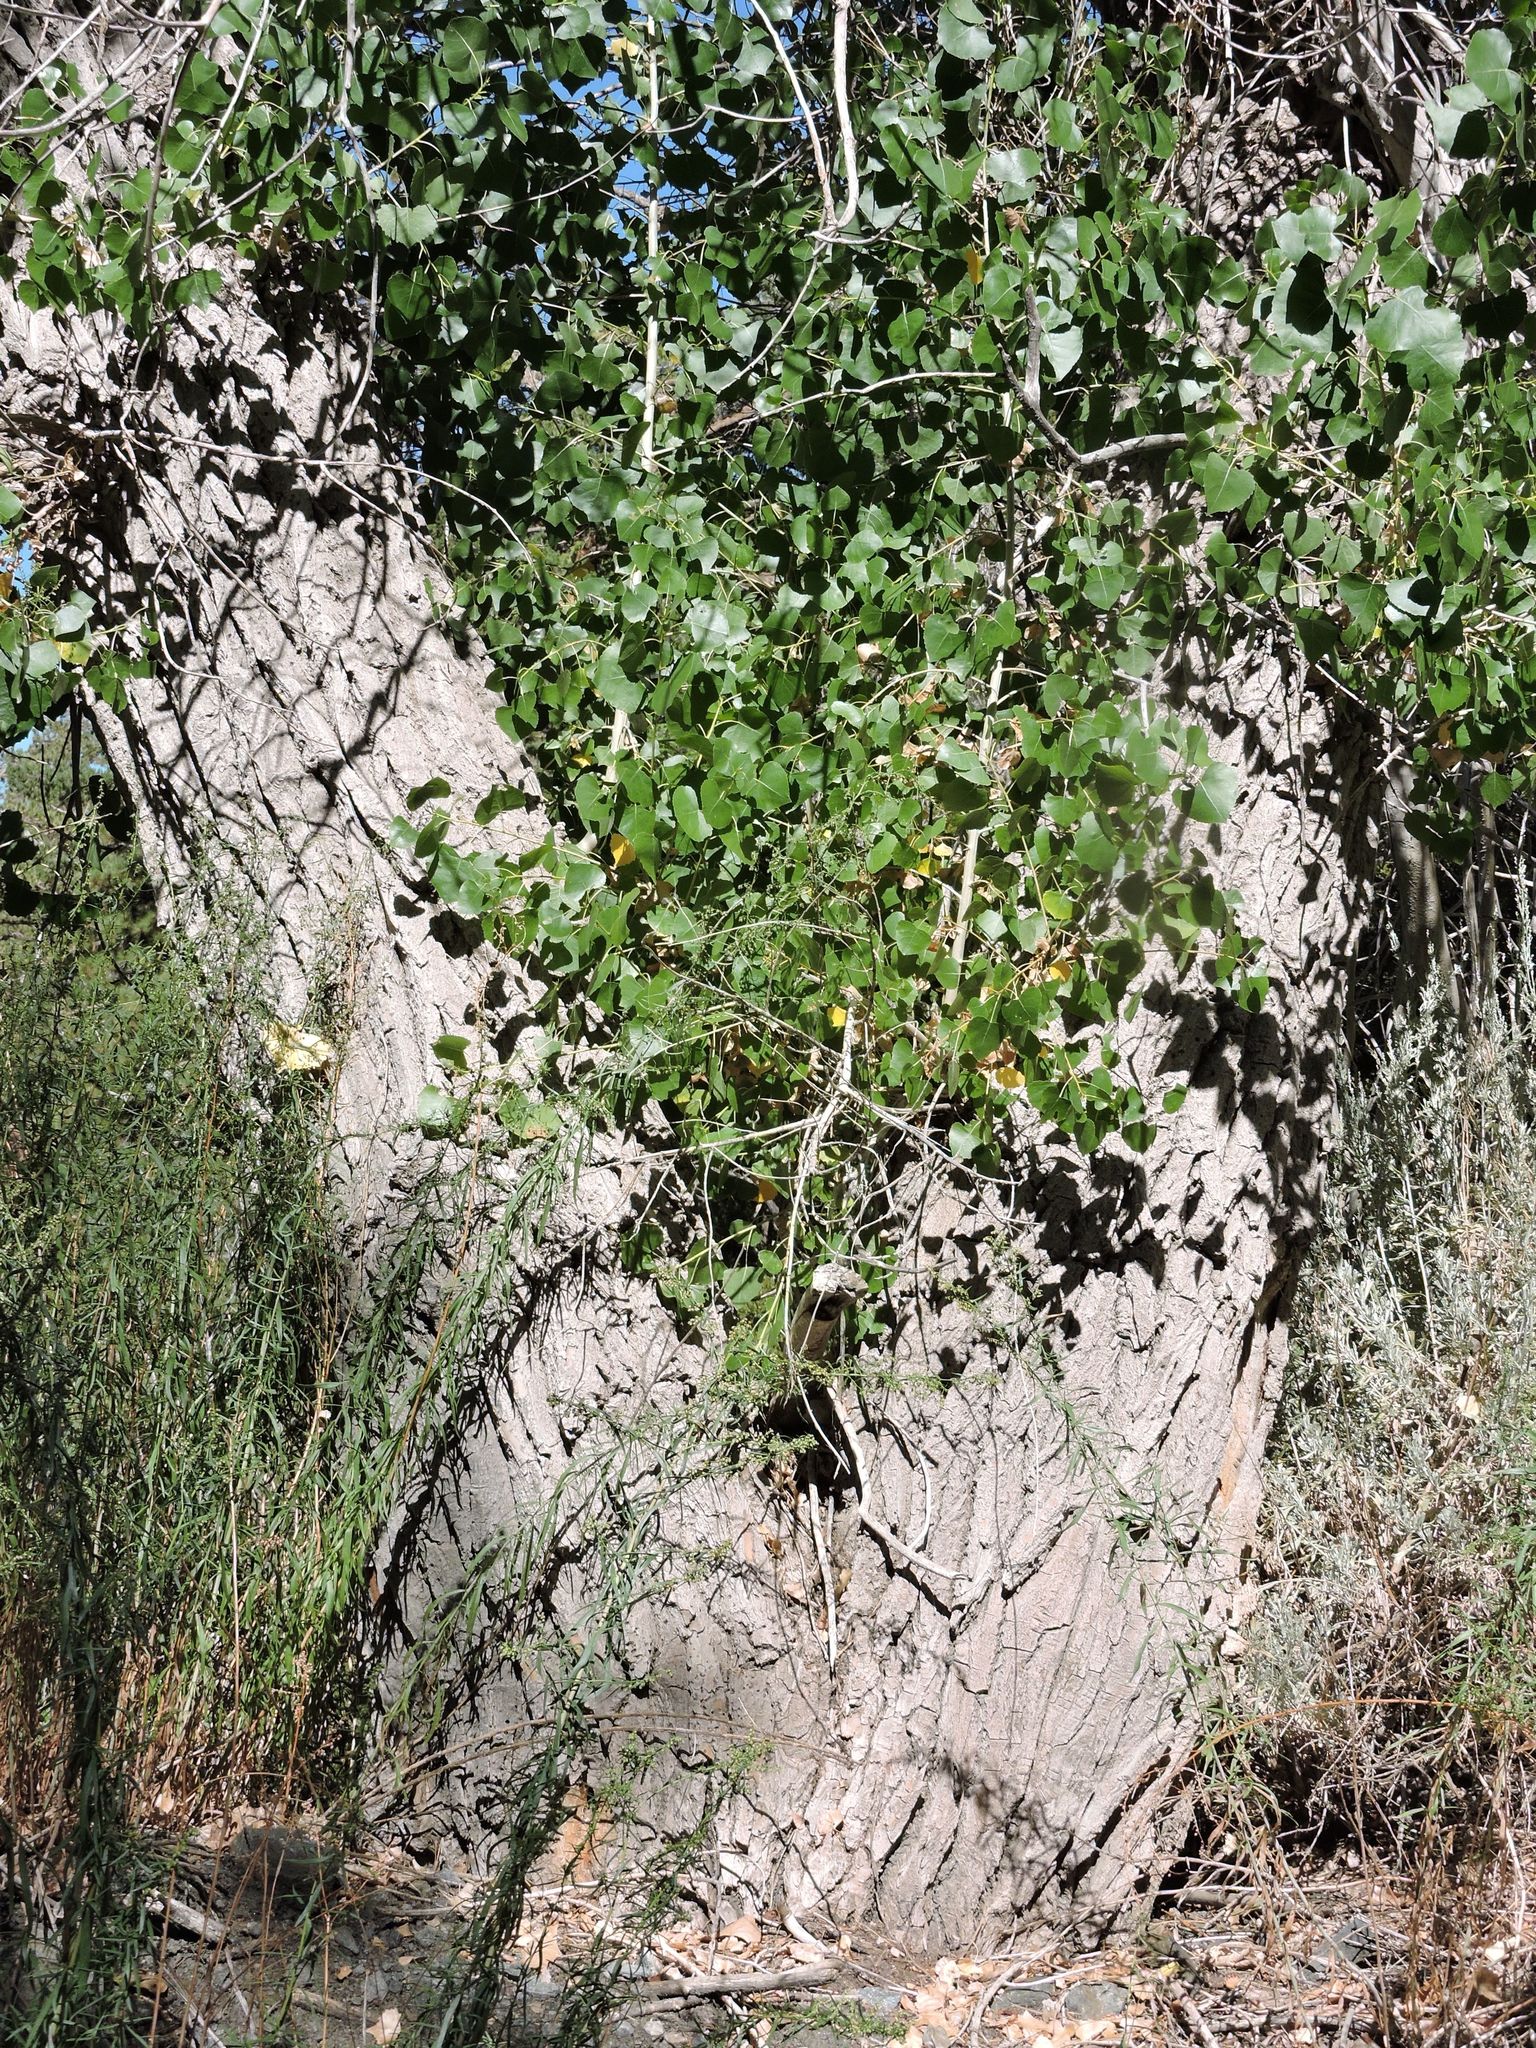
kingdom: Plantae
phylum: Tracheophyta
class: Magnoliopsida
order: Malpighiales
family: Salicaceae
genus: Populus
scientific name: Populus fremontii
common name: Fremont's cottonwood
